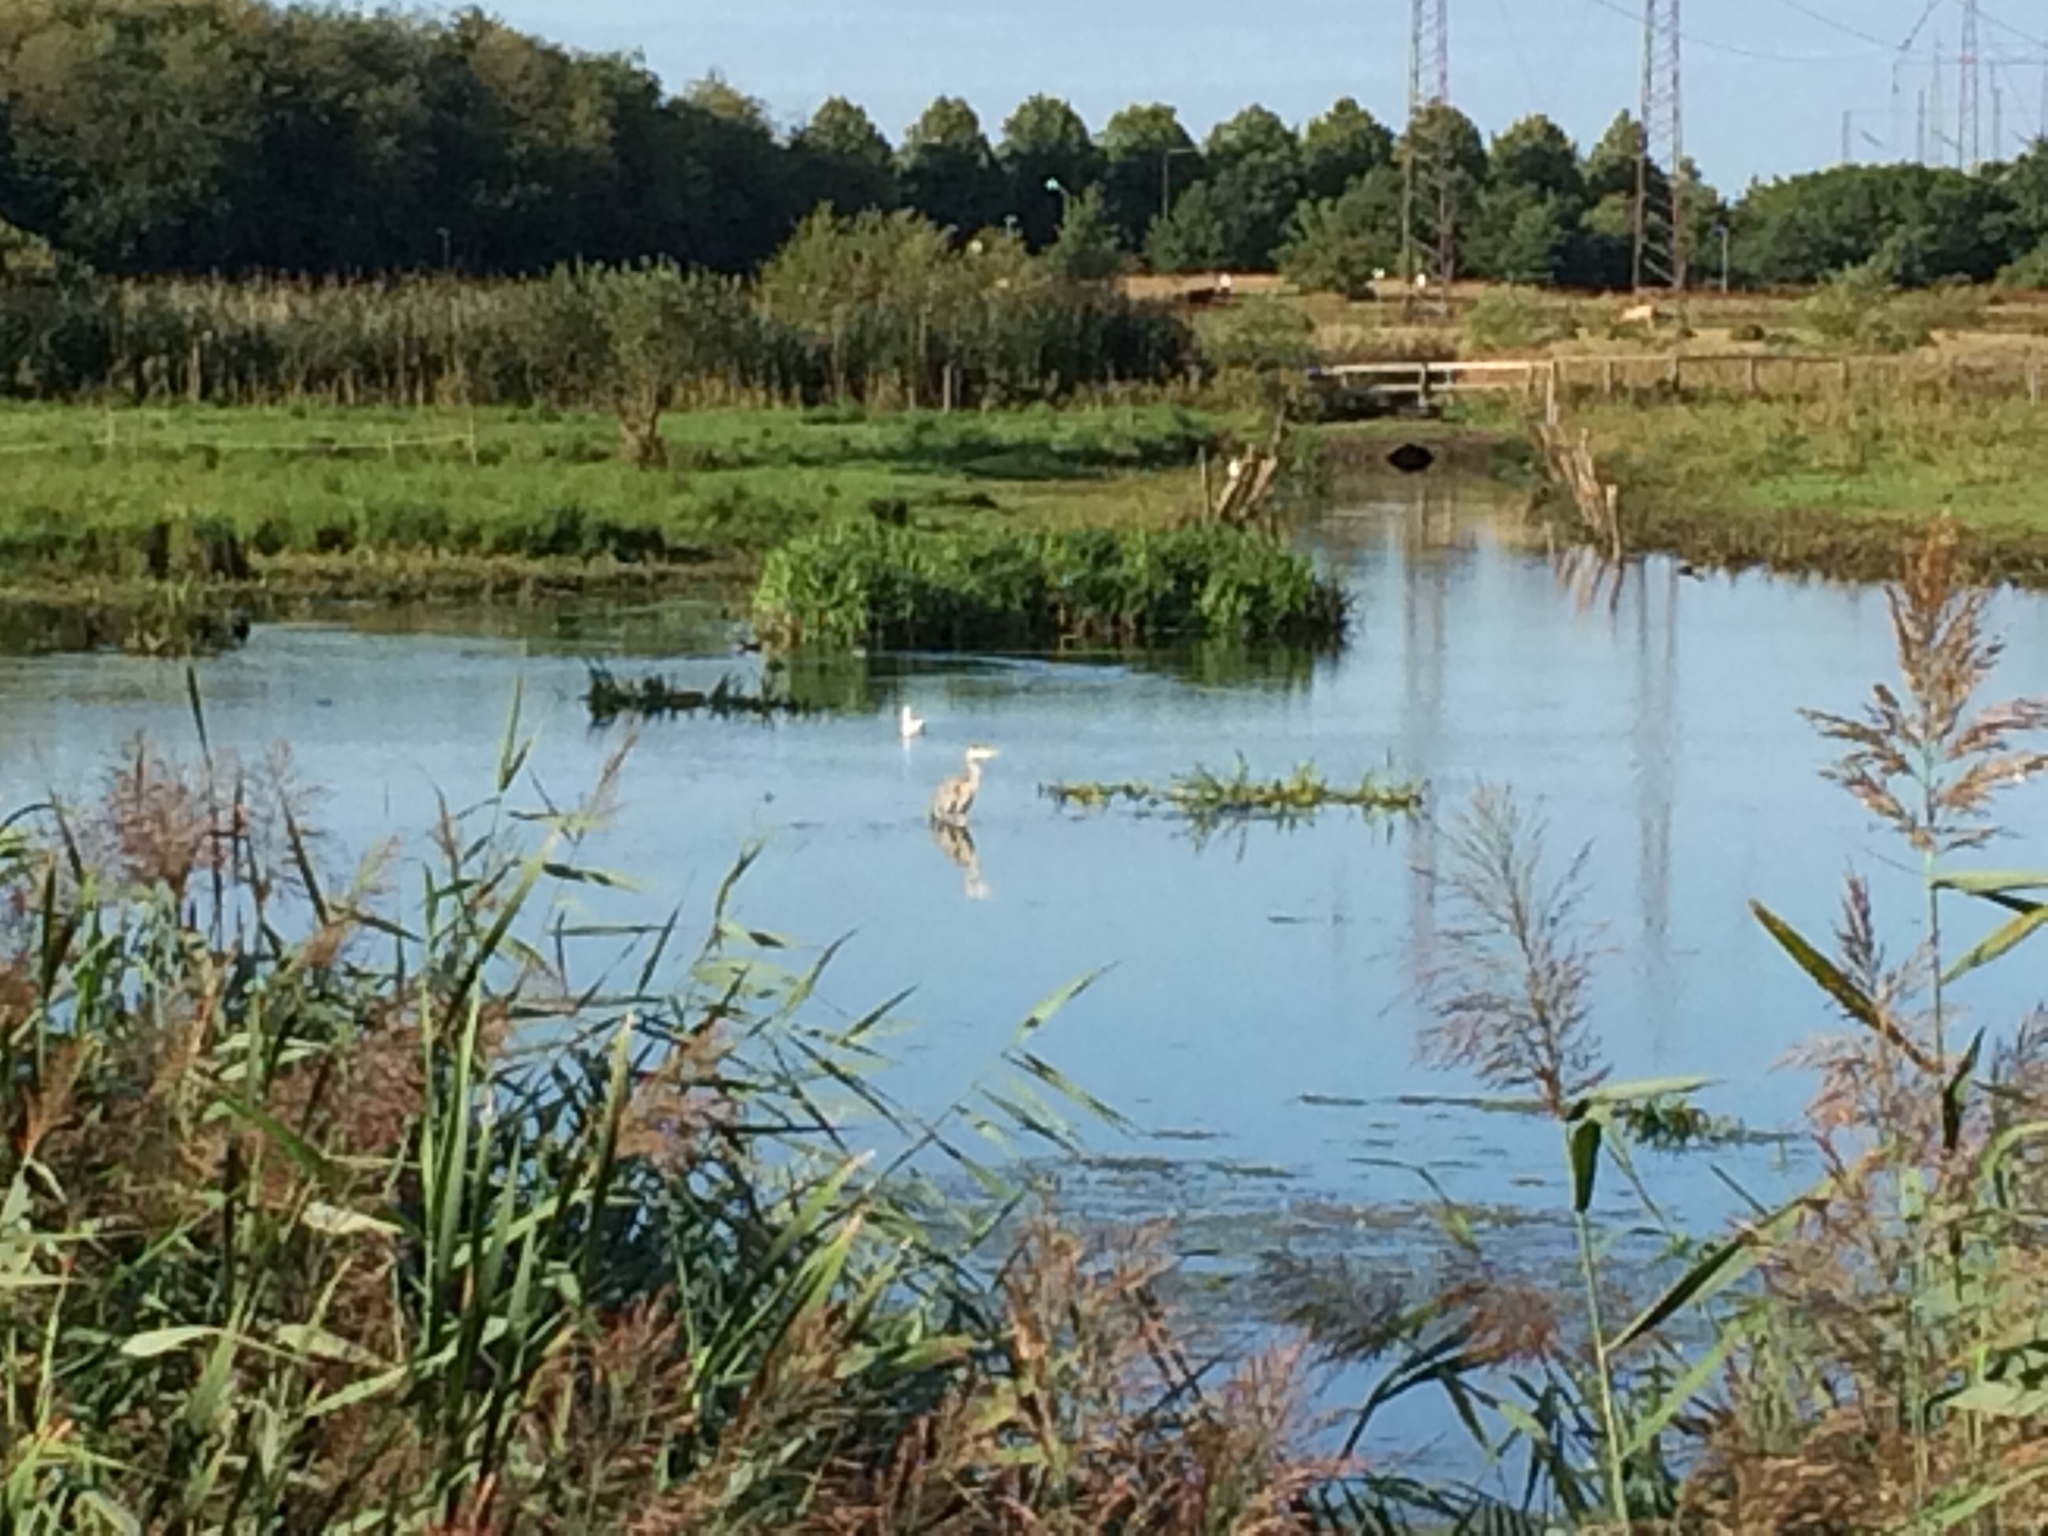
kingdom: Animalia
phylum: Chordata
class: Aves
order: Pelecaniformes
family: Ardeidae
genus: Ardea
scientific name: Ardea cinerea
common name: Grey heron
